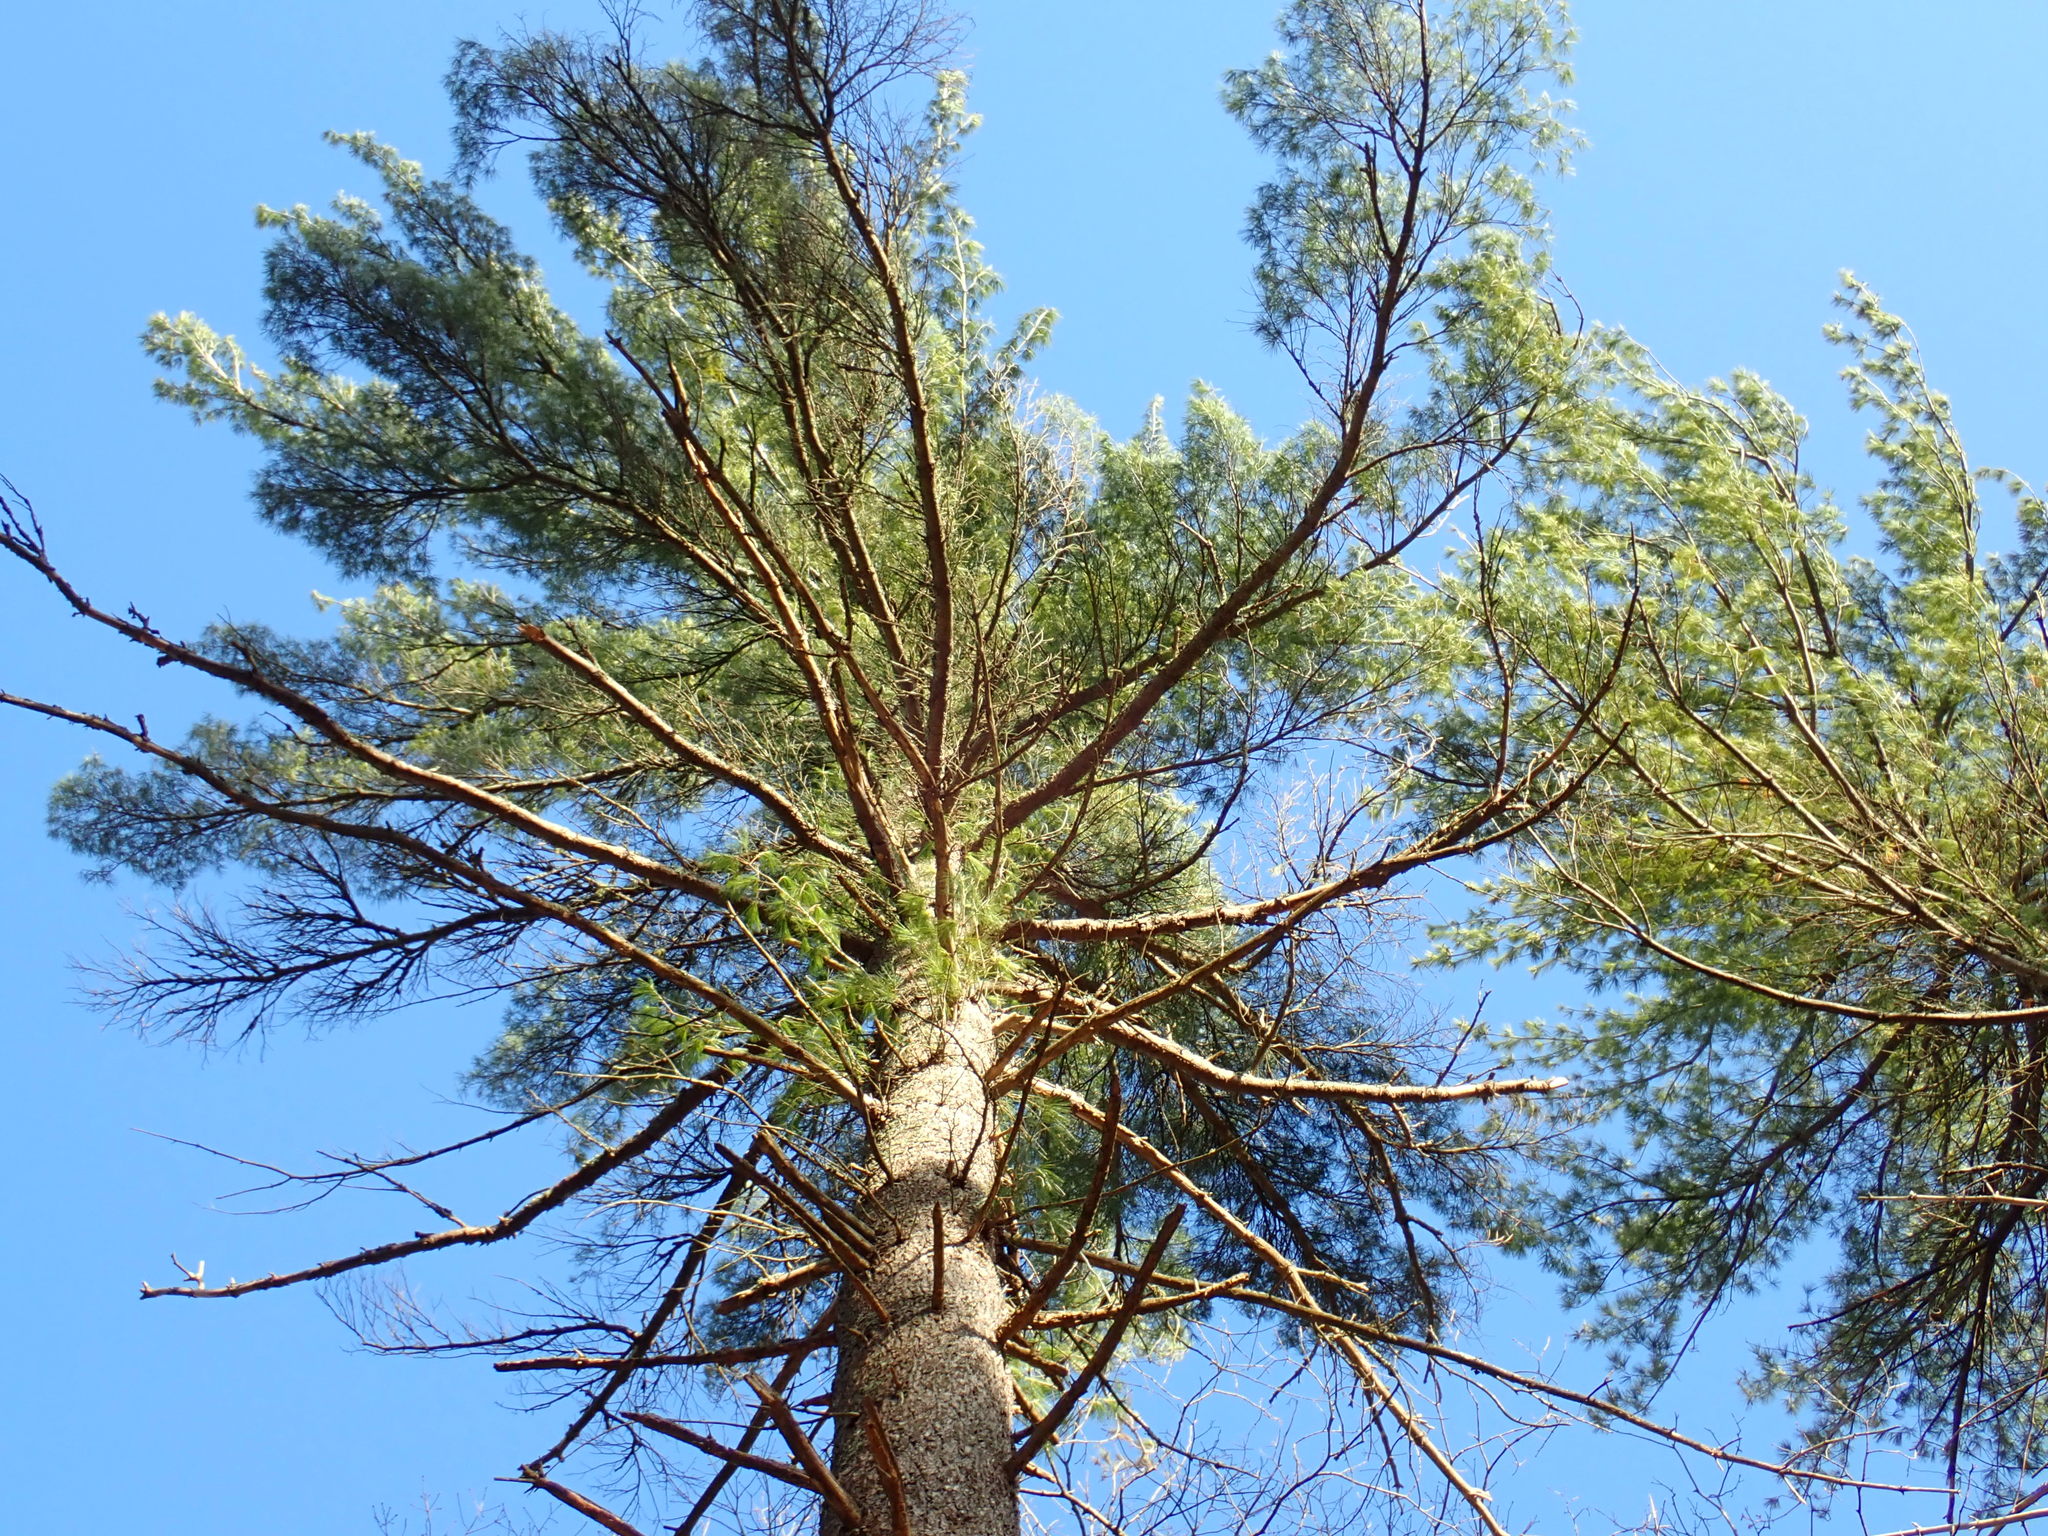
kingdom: Plantae
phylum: Tracheophyta
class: Pinopsida
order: Pinales
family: Pinaceae
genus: Pinus
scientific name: Pinus strobus
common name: Weymouth pine
